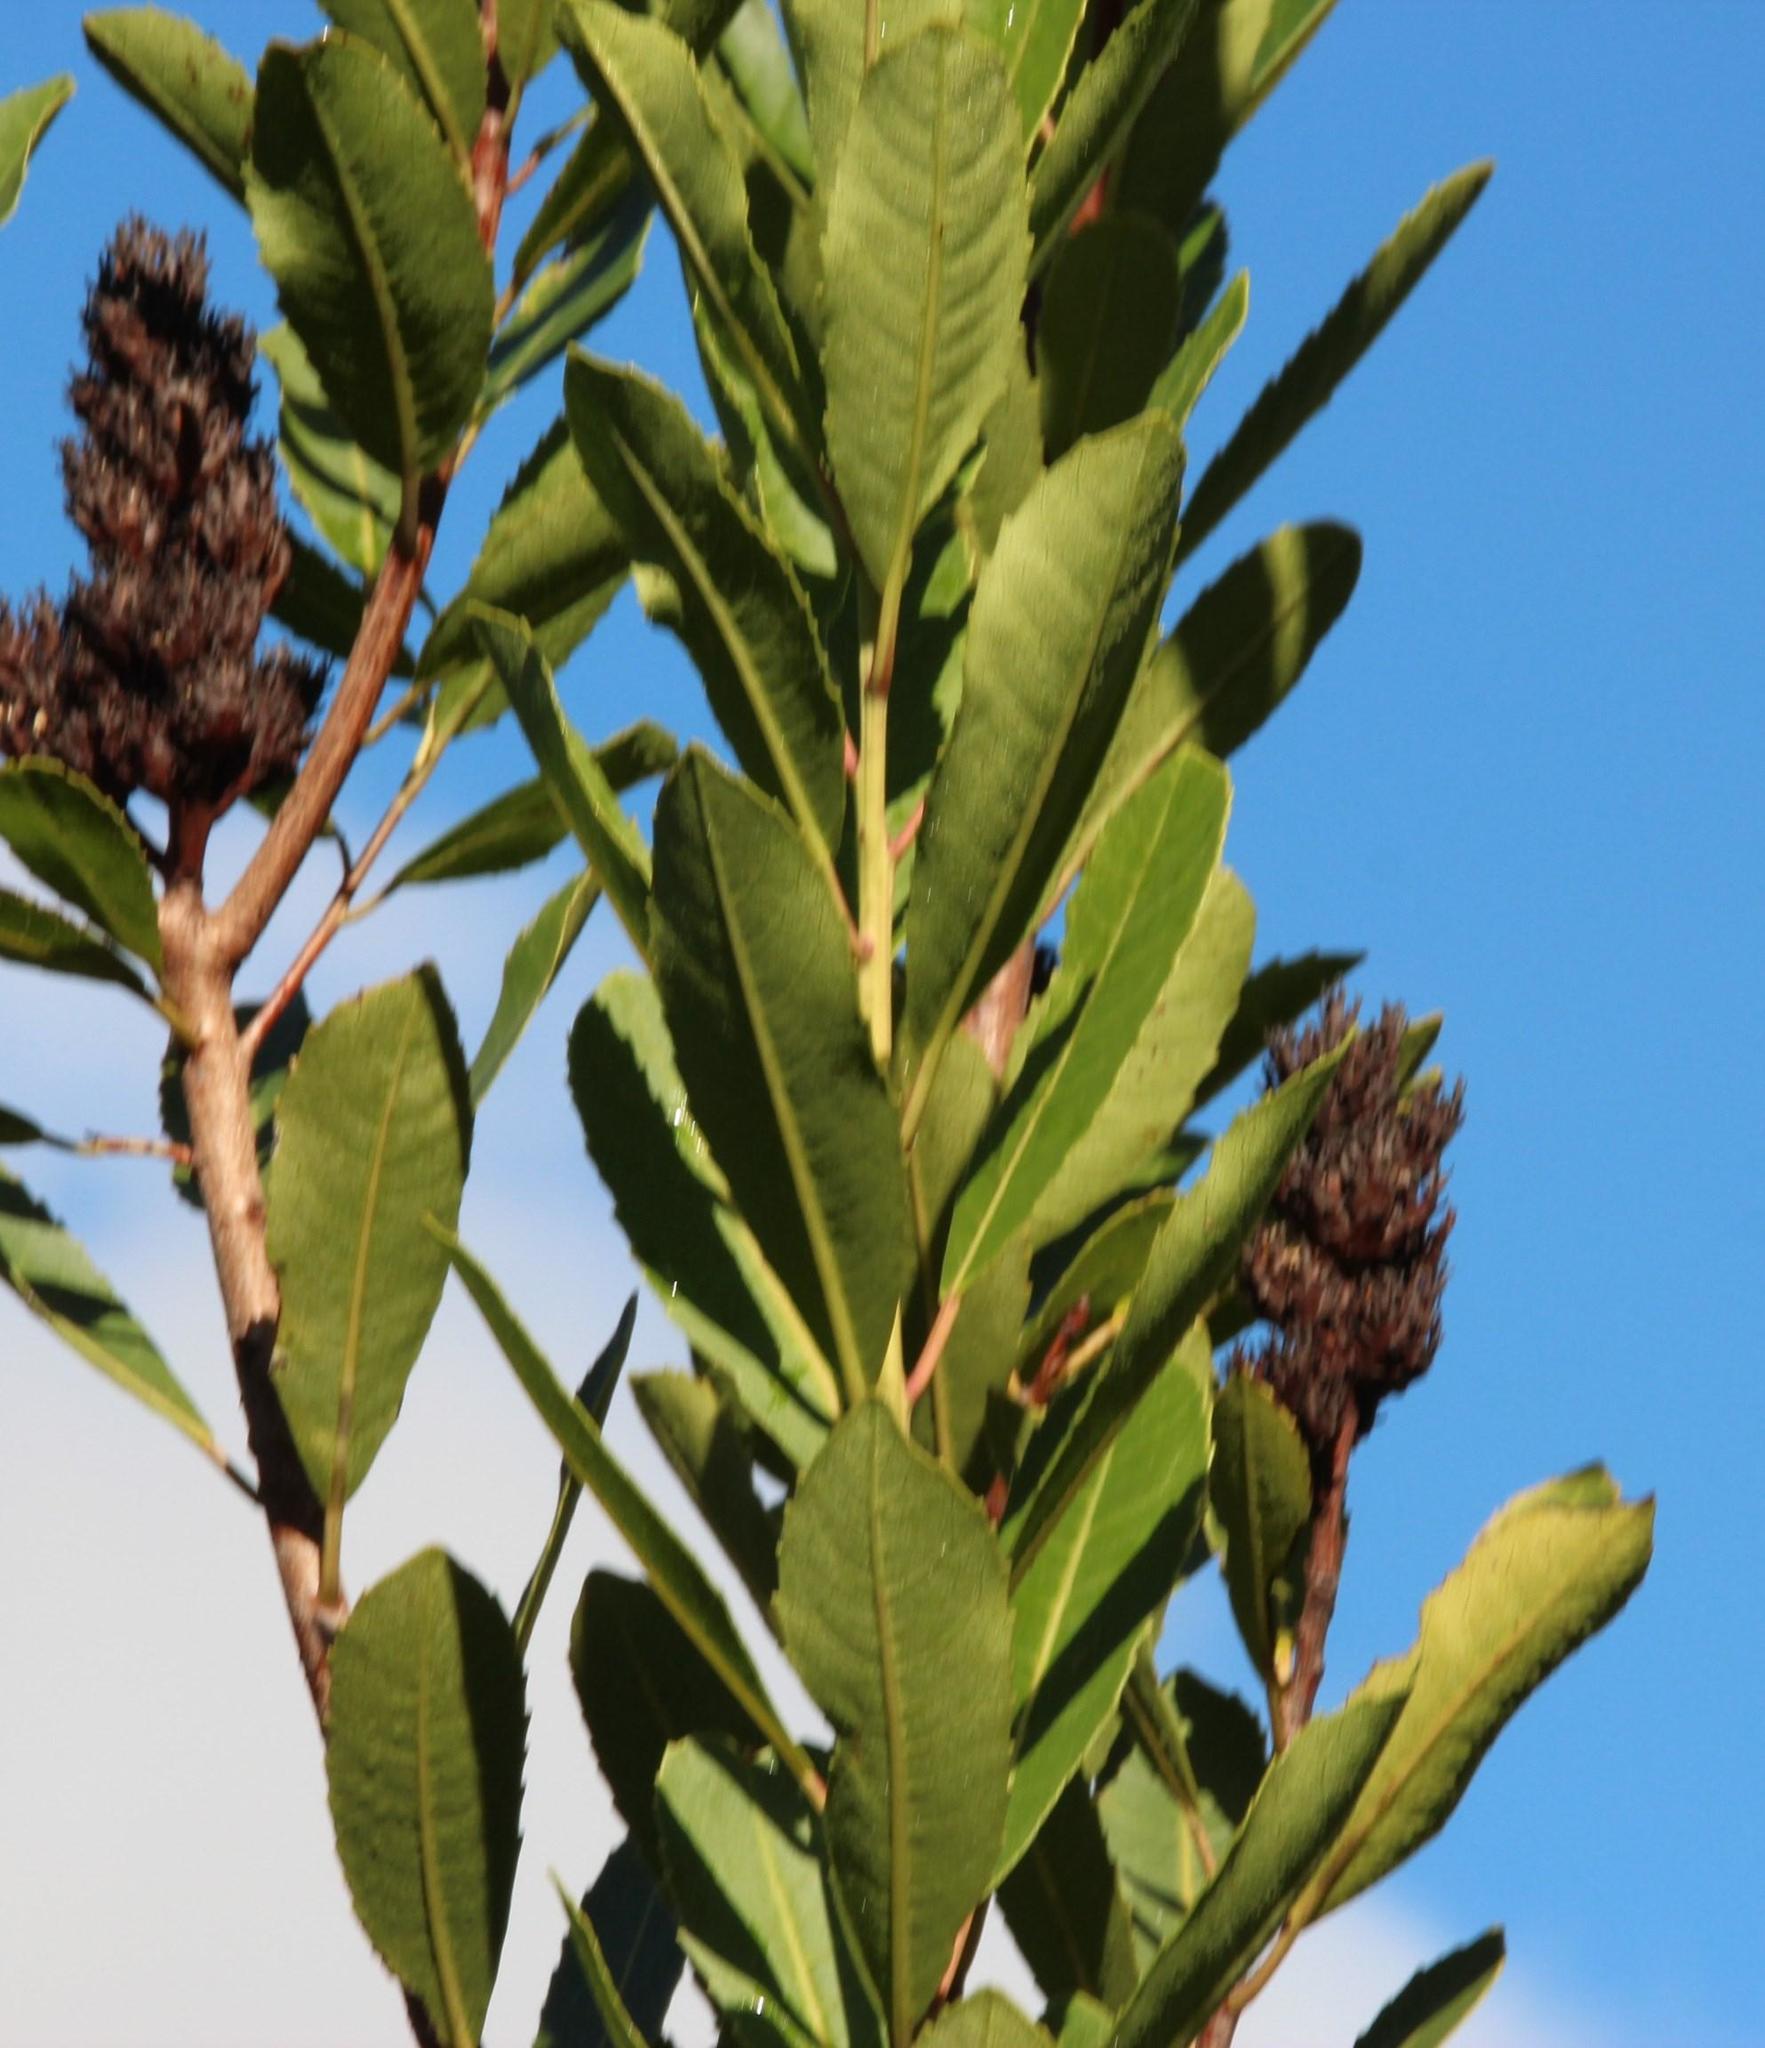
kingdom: Plantae
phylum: Tracheophyta
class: Magnoliopsida
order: Sapindales
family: Anacardiaceae
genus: Laurophyllus
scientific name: Laurophyllus capensis
